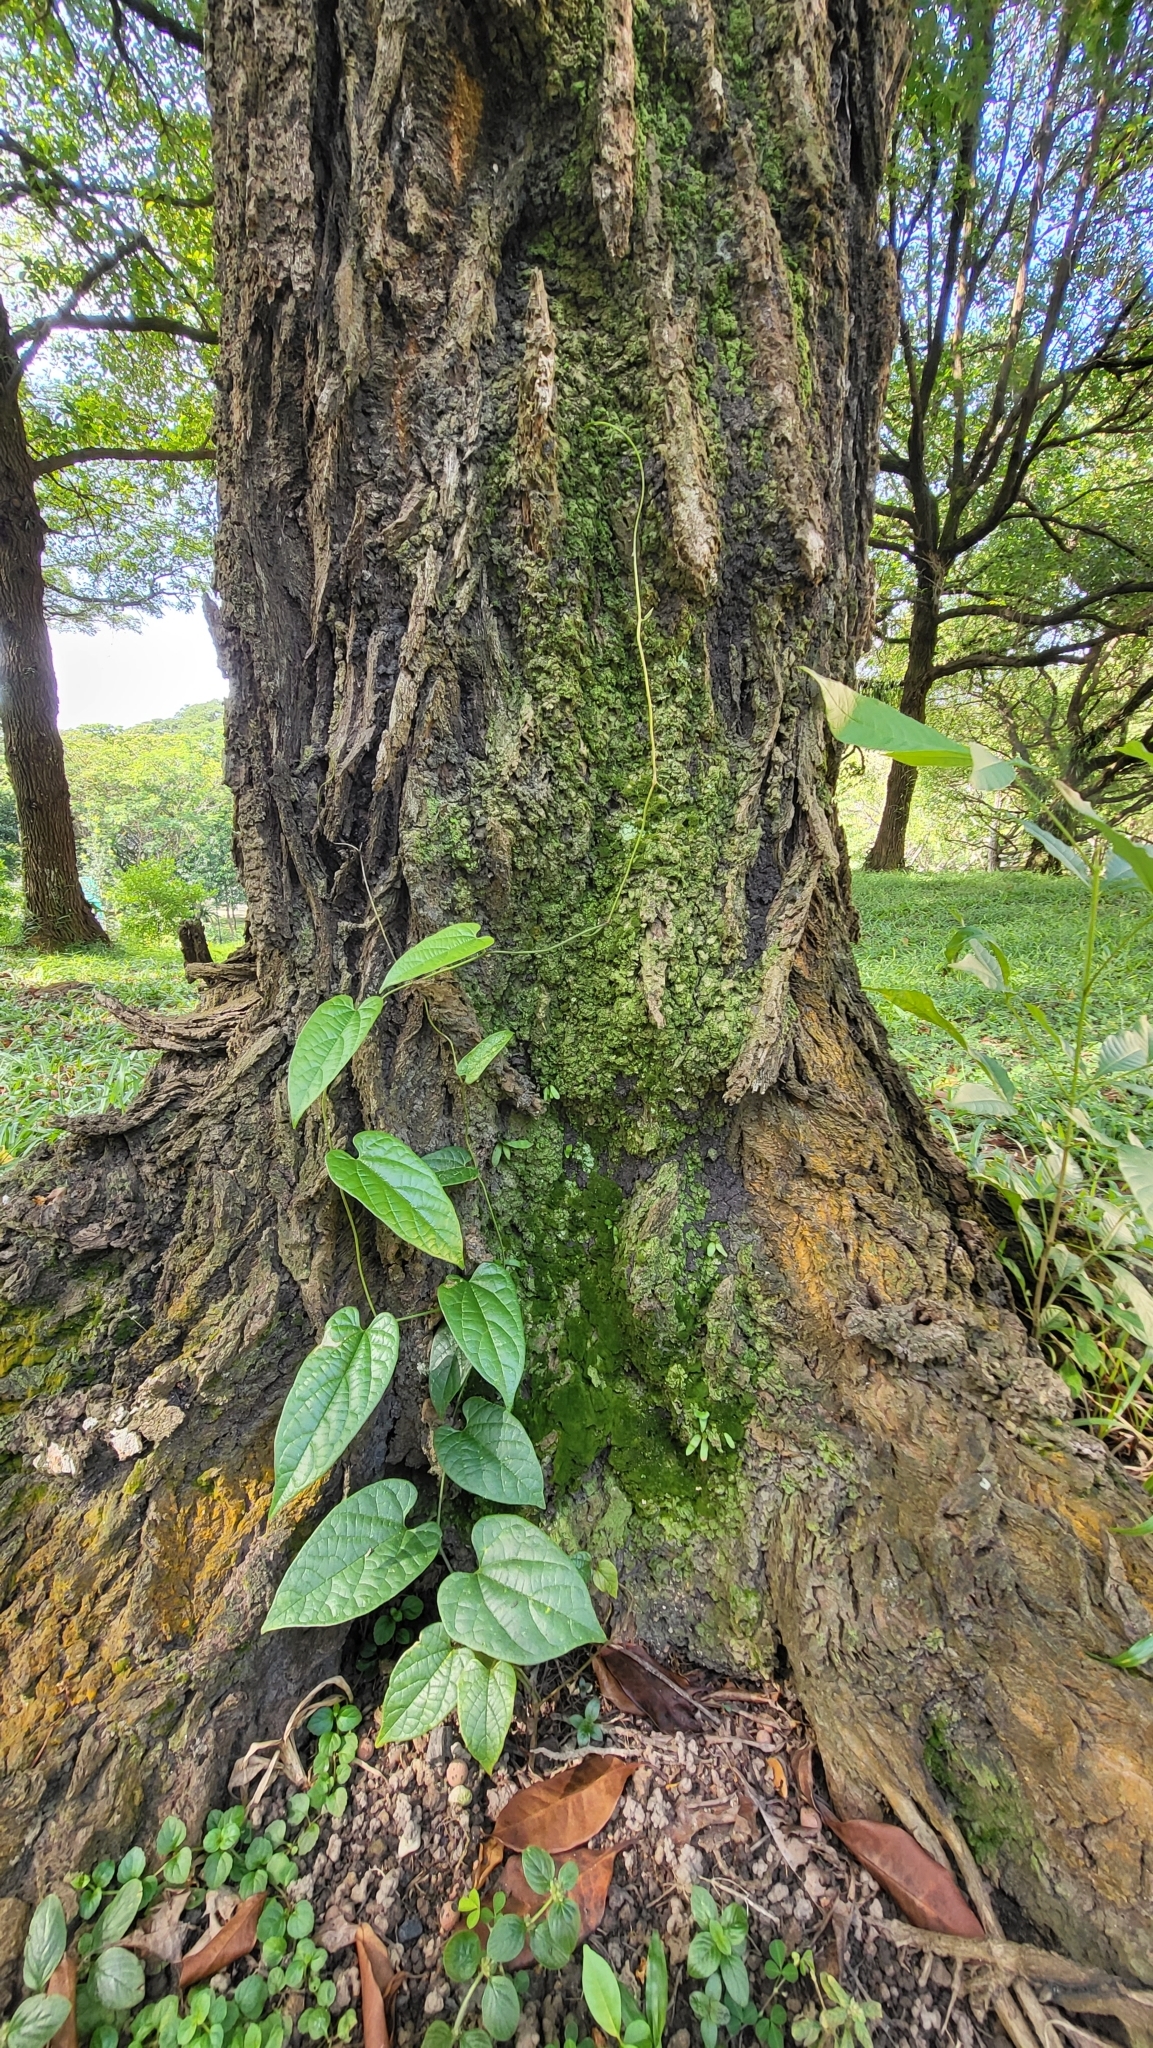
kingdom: Plantae
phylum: Tracheophyta
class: Magnoliopsida
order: Piperales
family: Aristolochiaceae
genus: Aristolochia
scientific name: Aristolochia acuminata
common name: Indian birthwort
